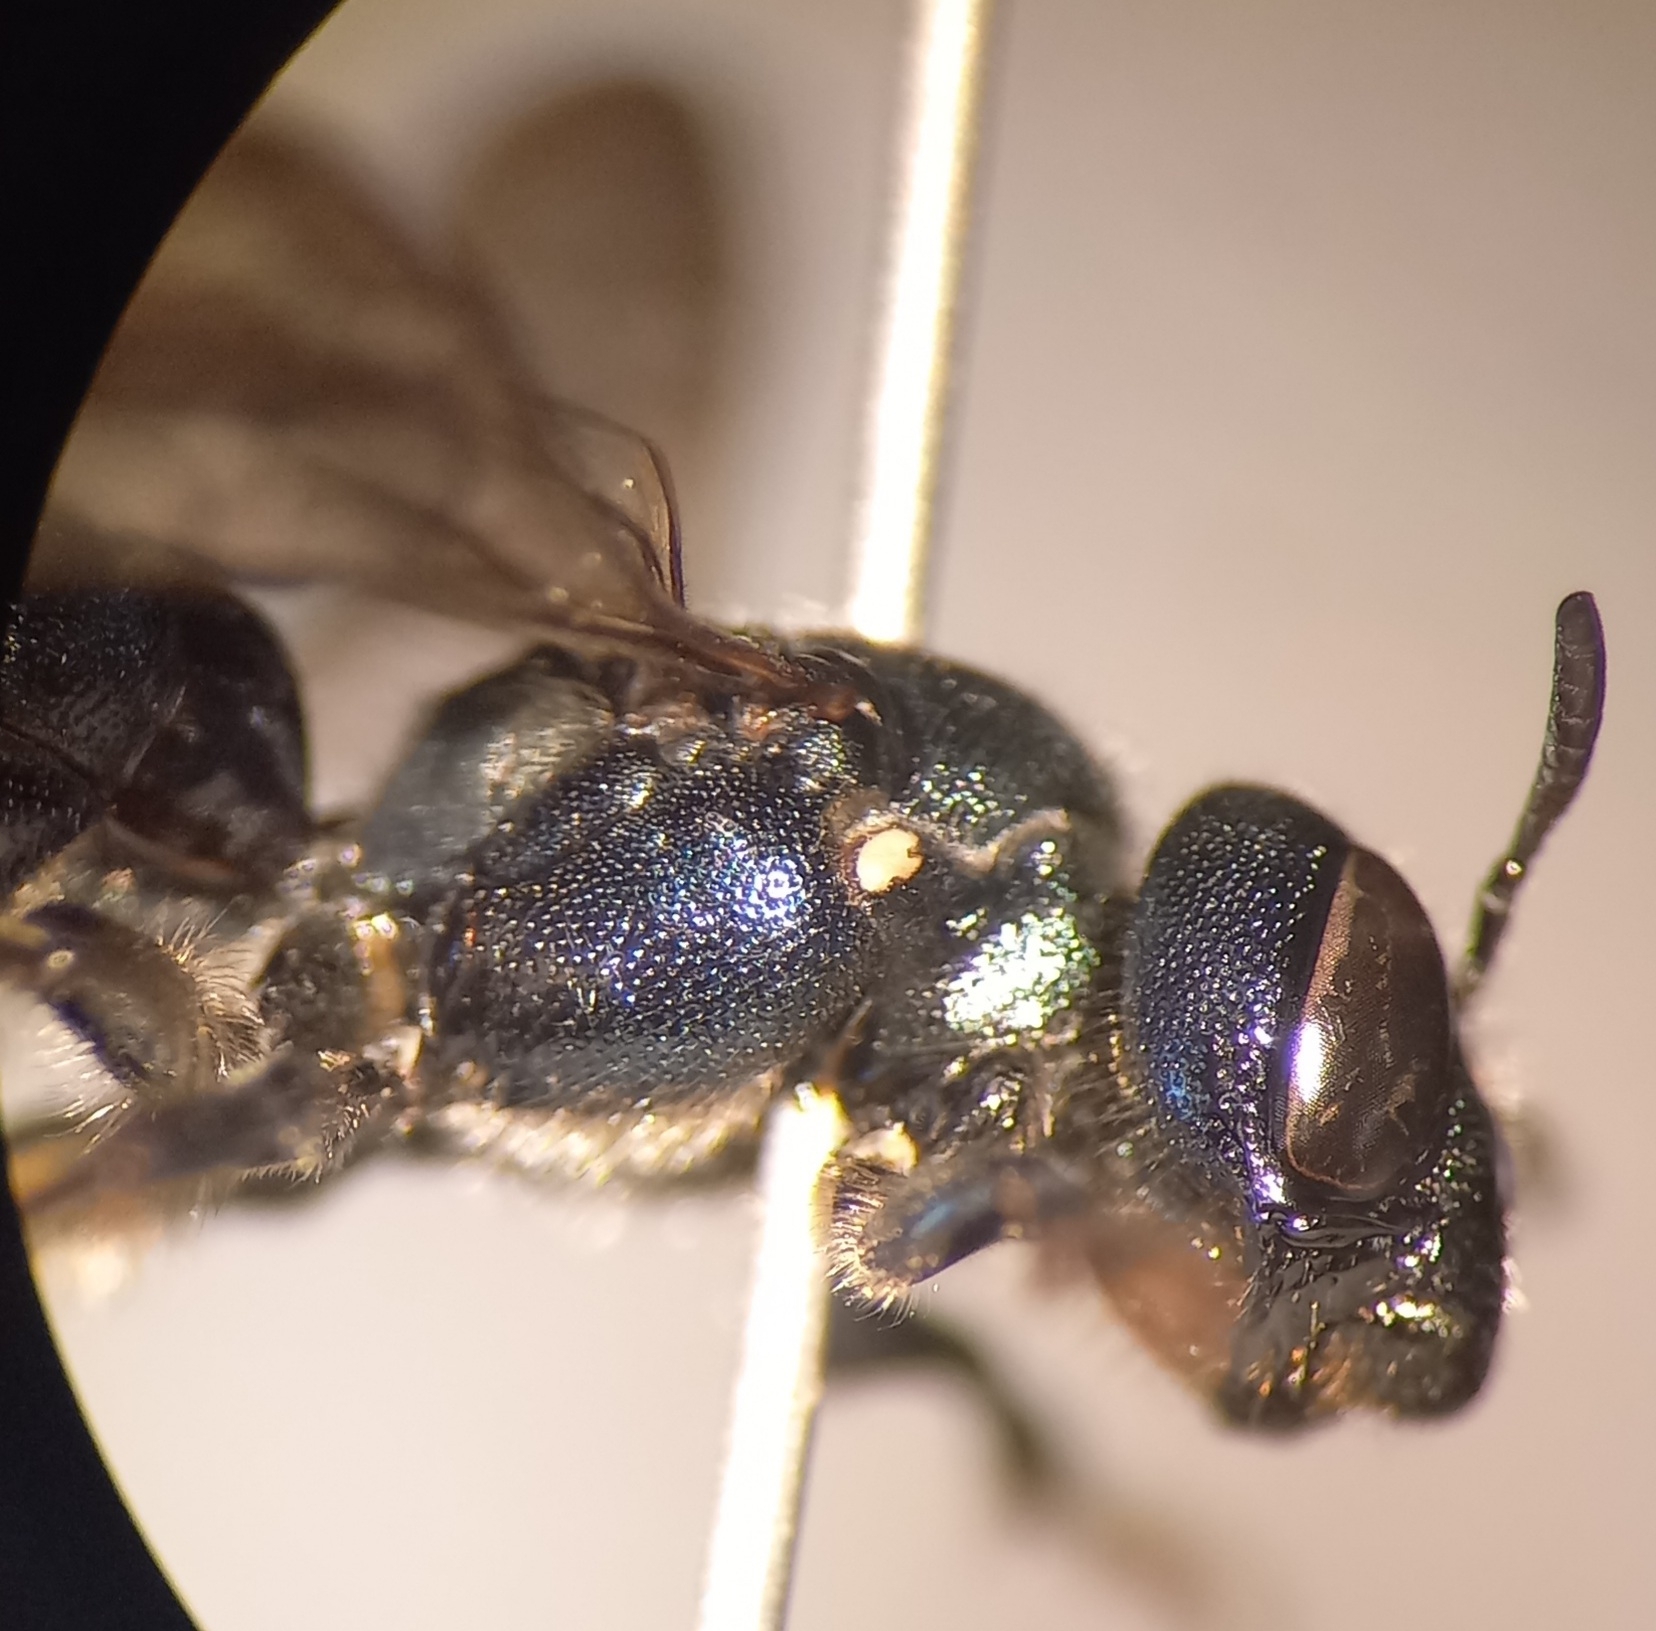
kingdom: Animalia
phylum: Arthropoda
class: Insecta
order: Hymenoptera
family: Apidae
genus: Ceratina
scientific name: Ceratina chalybea
